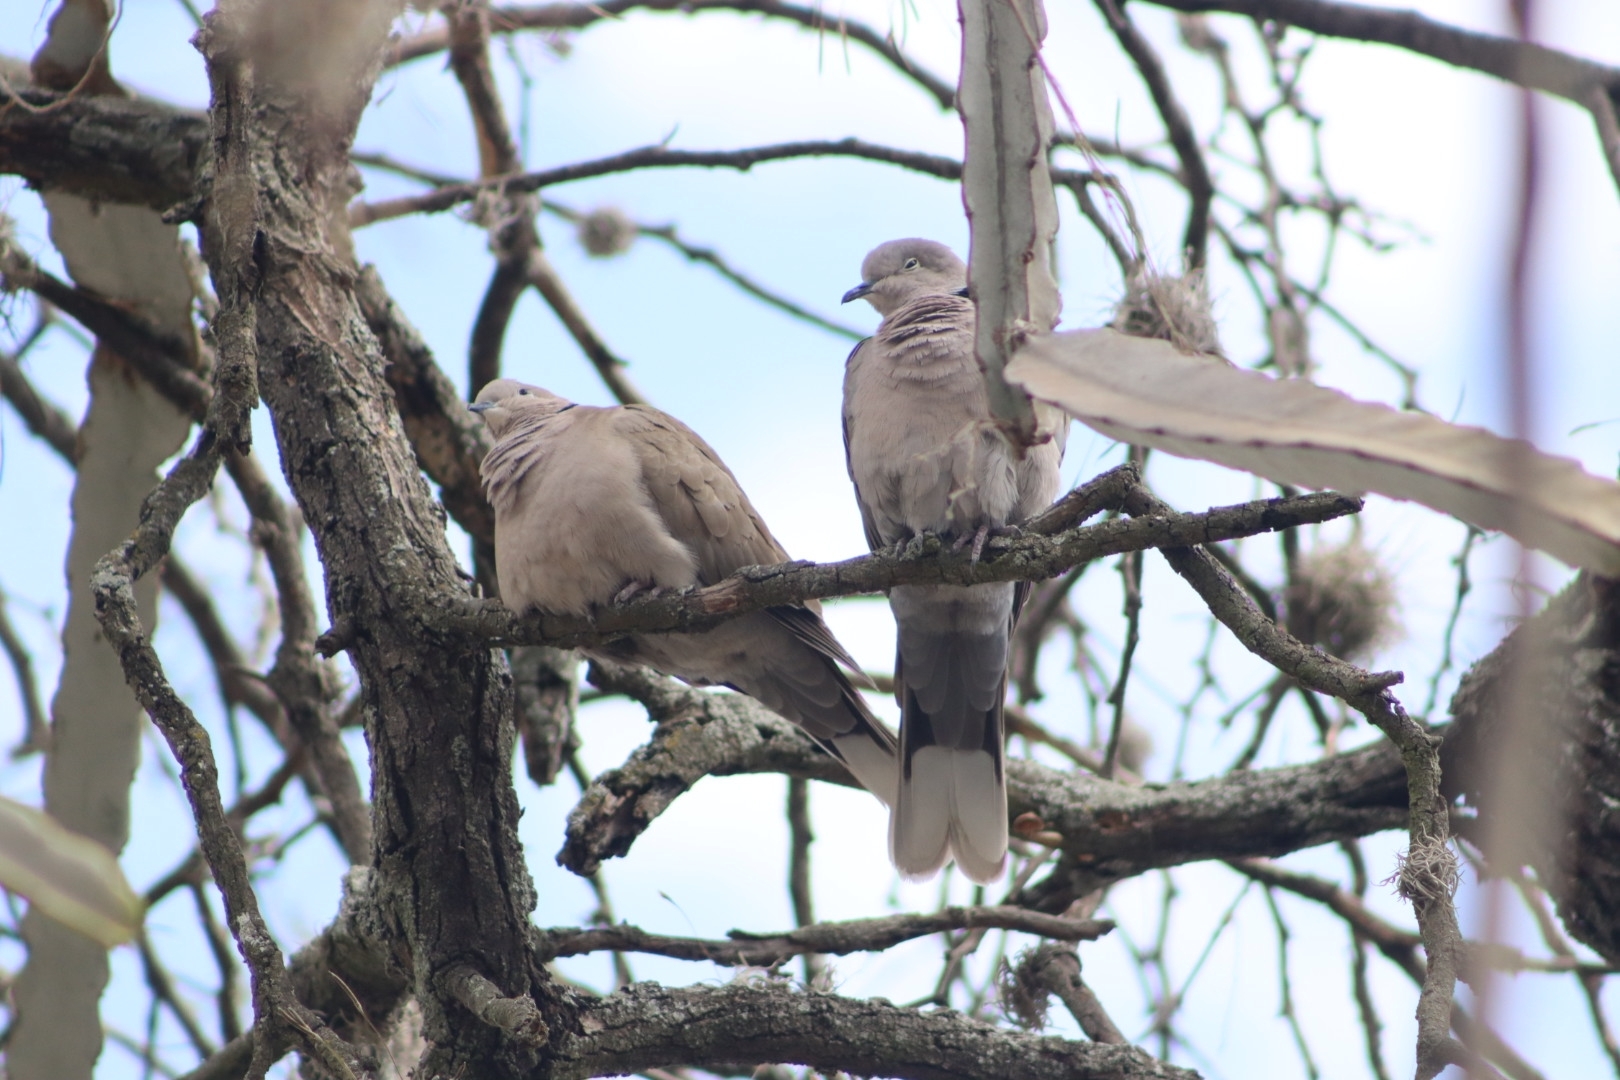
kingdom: Animalia
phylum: Chordata
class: Aves
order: Columbiformes
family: Columbidae
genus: Streptopelia
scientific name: Streptopelia decaocto
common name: Eurasian collared dove
